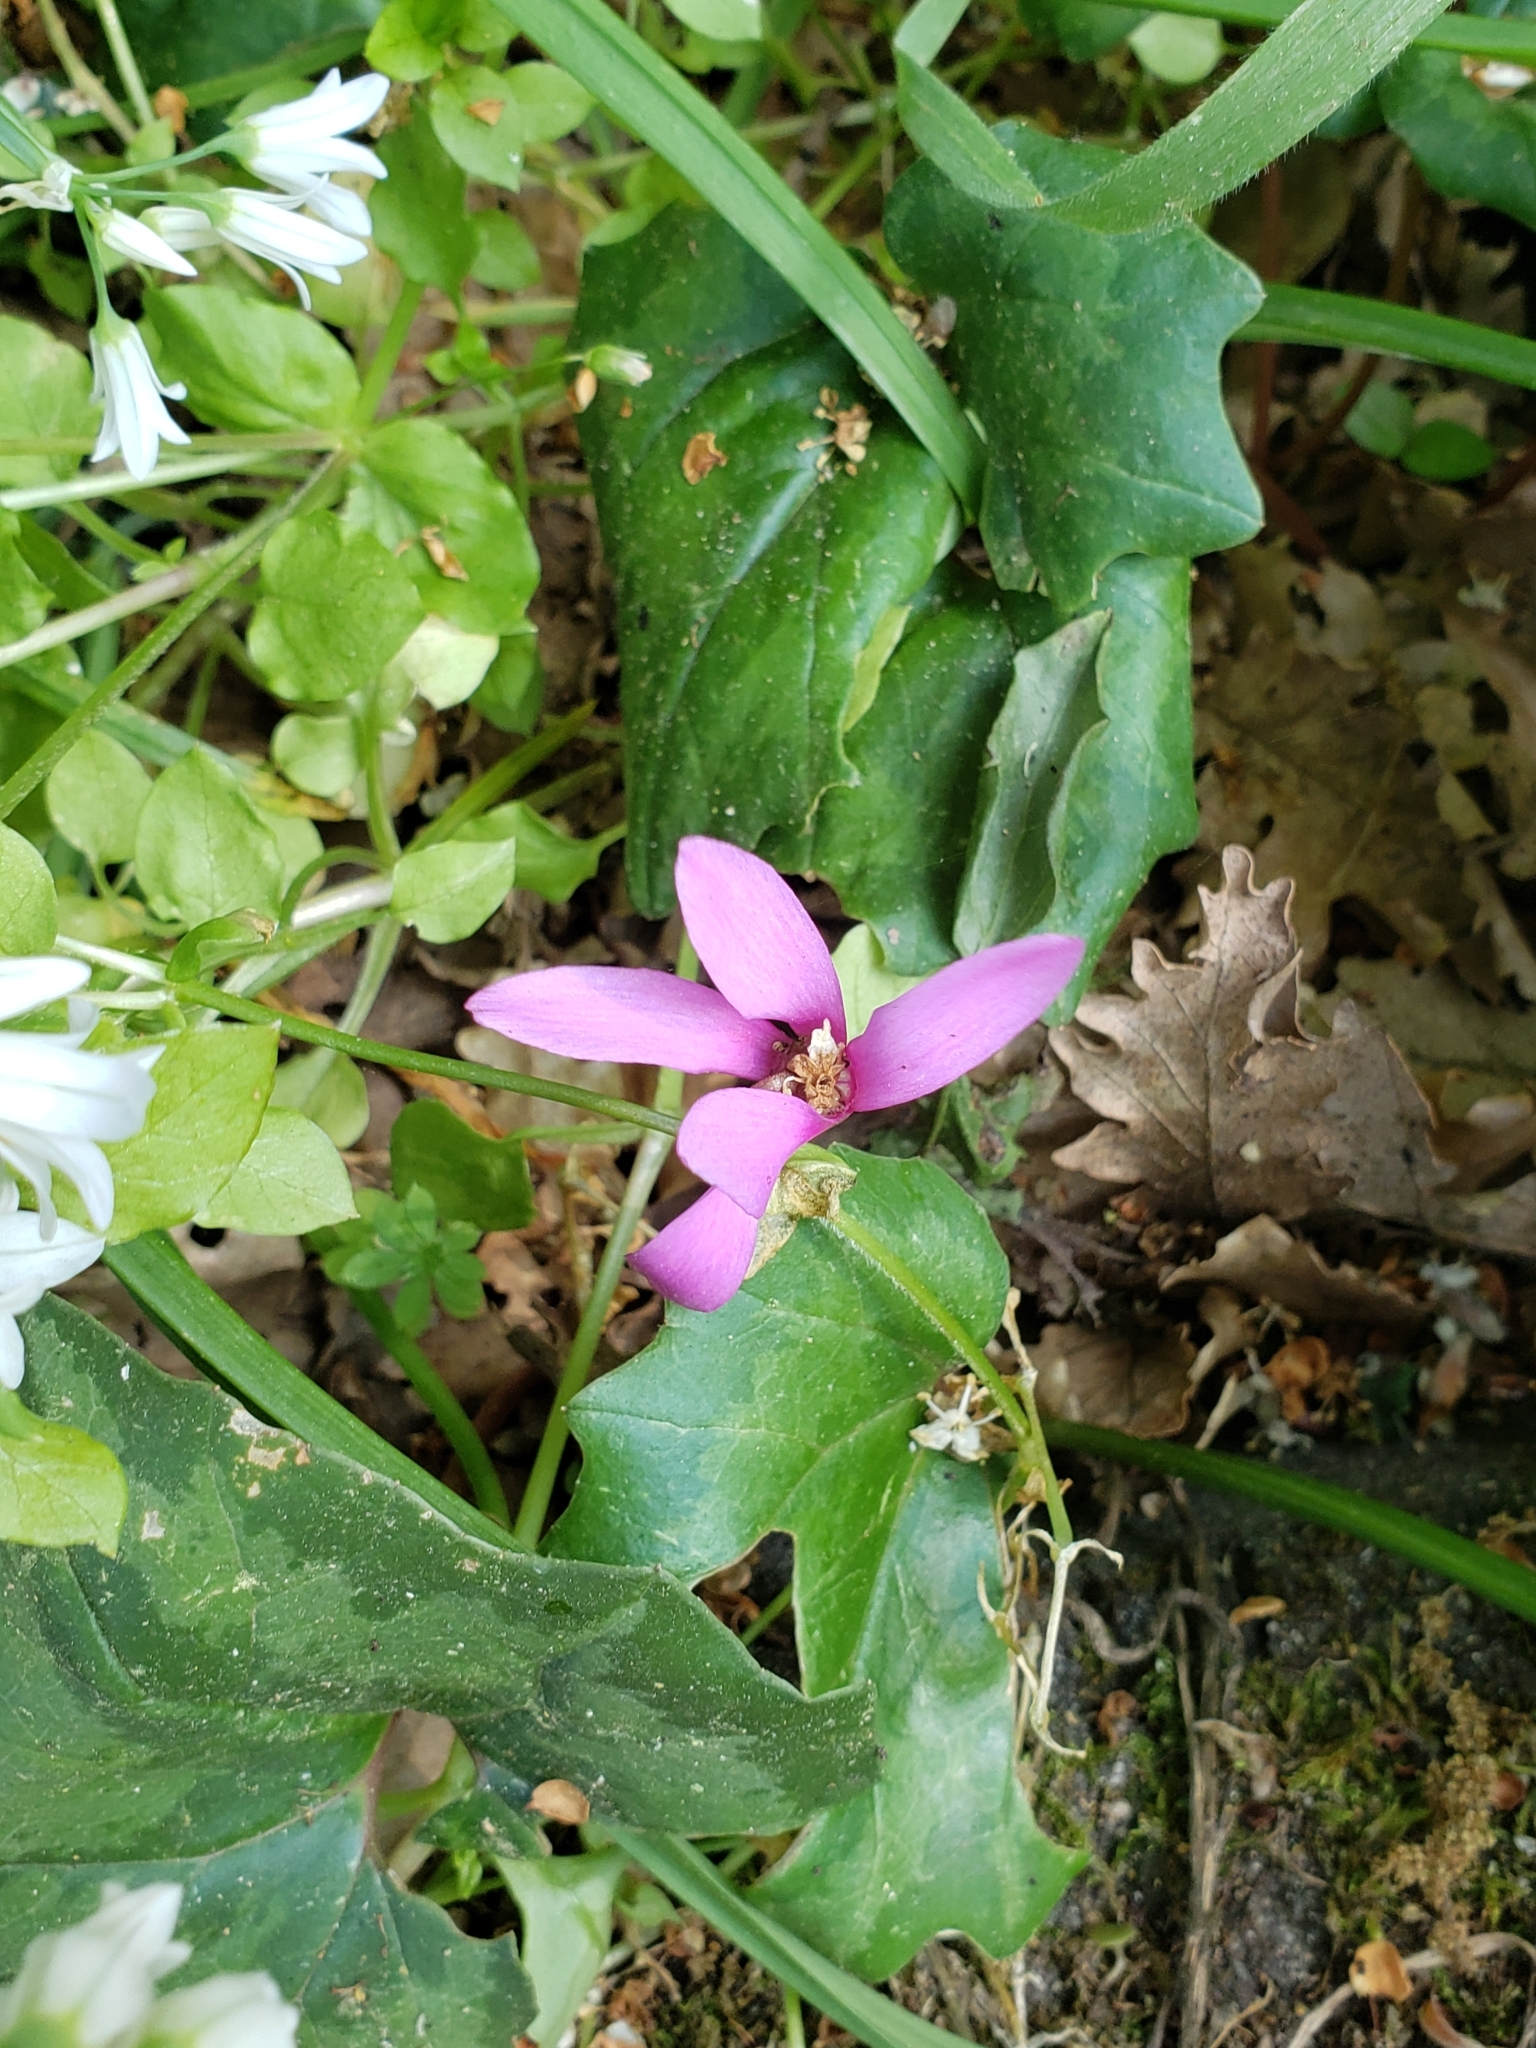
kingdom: Plantae
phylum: Tracheophyta
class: Magnoliopsida
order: Ericales
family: Primulaceae
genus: Cyclamen
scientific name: Cyclamen repandum
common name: Spring sowbread
